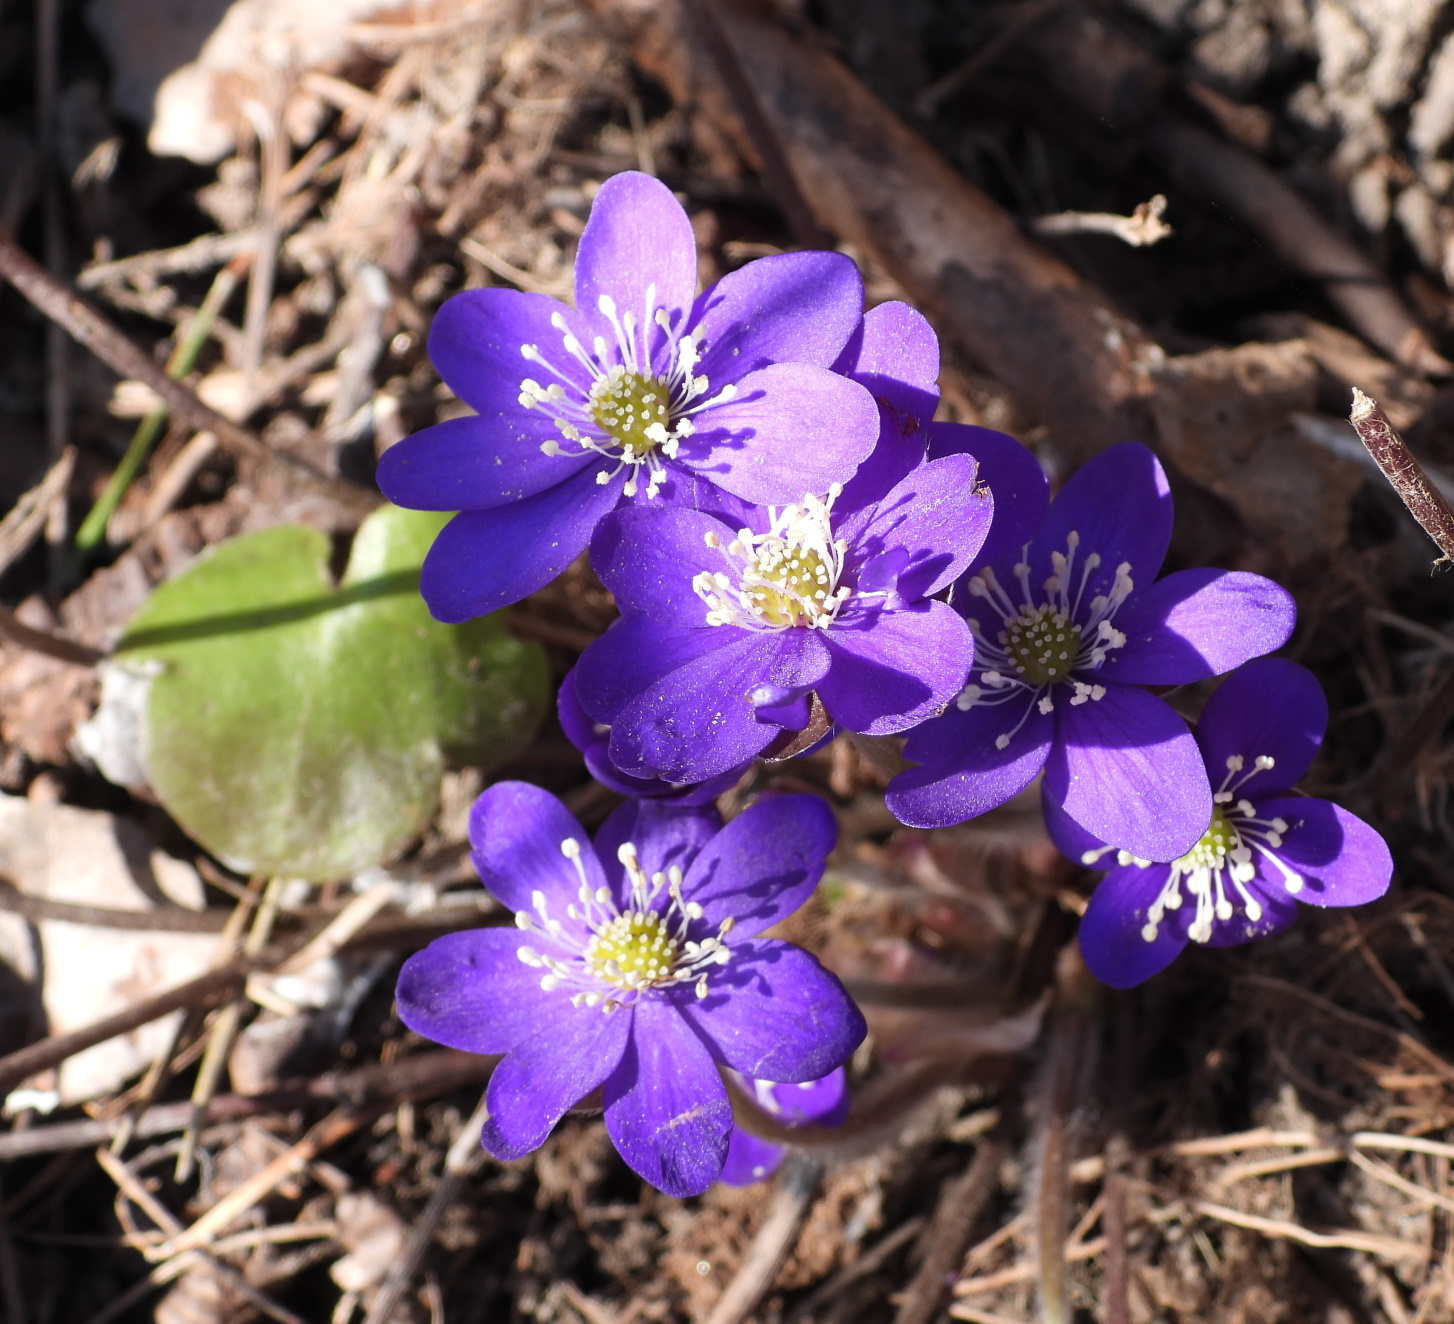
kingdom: Plantae
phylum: Tracheophyta
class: Magnoliopsida
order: Ranunculales
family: Ranunculaceae
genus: Hepatica
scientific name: Hepatica nobilis
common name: Liverleaf
